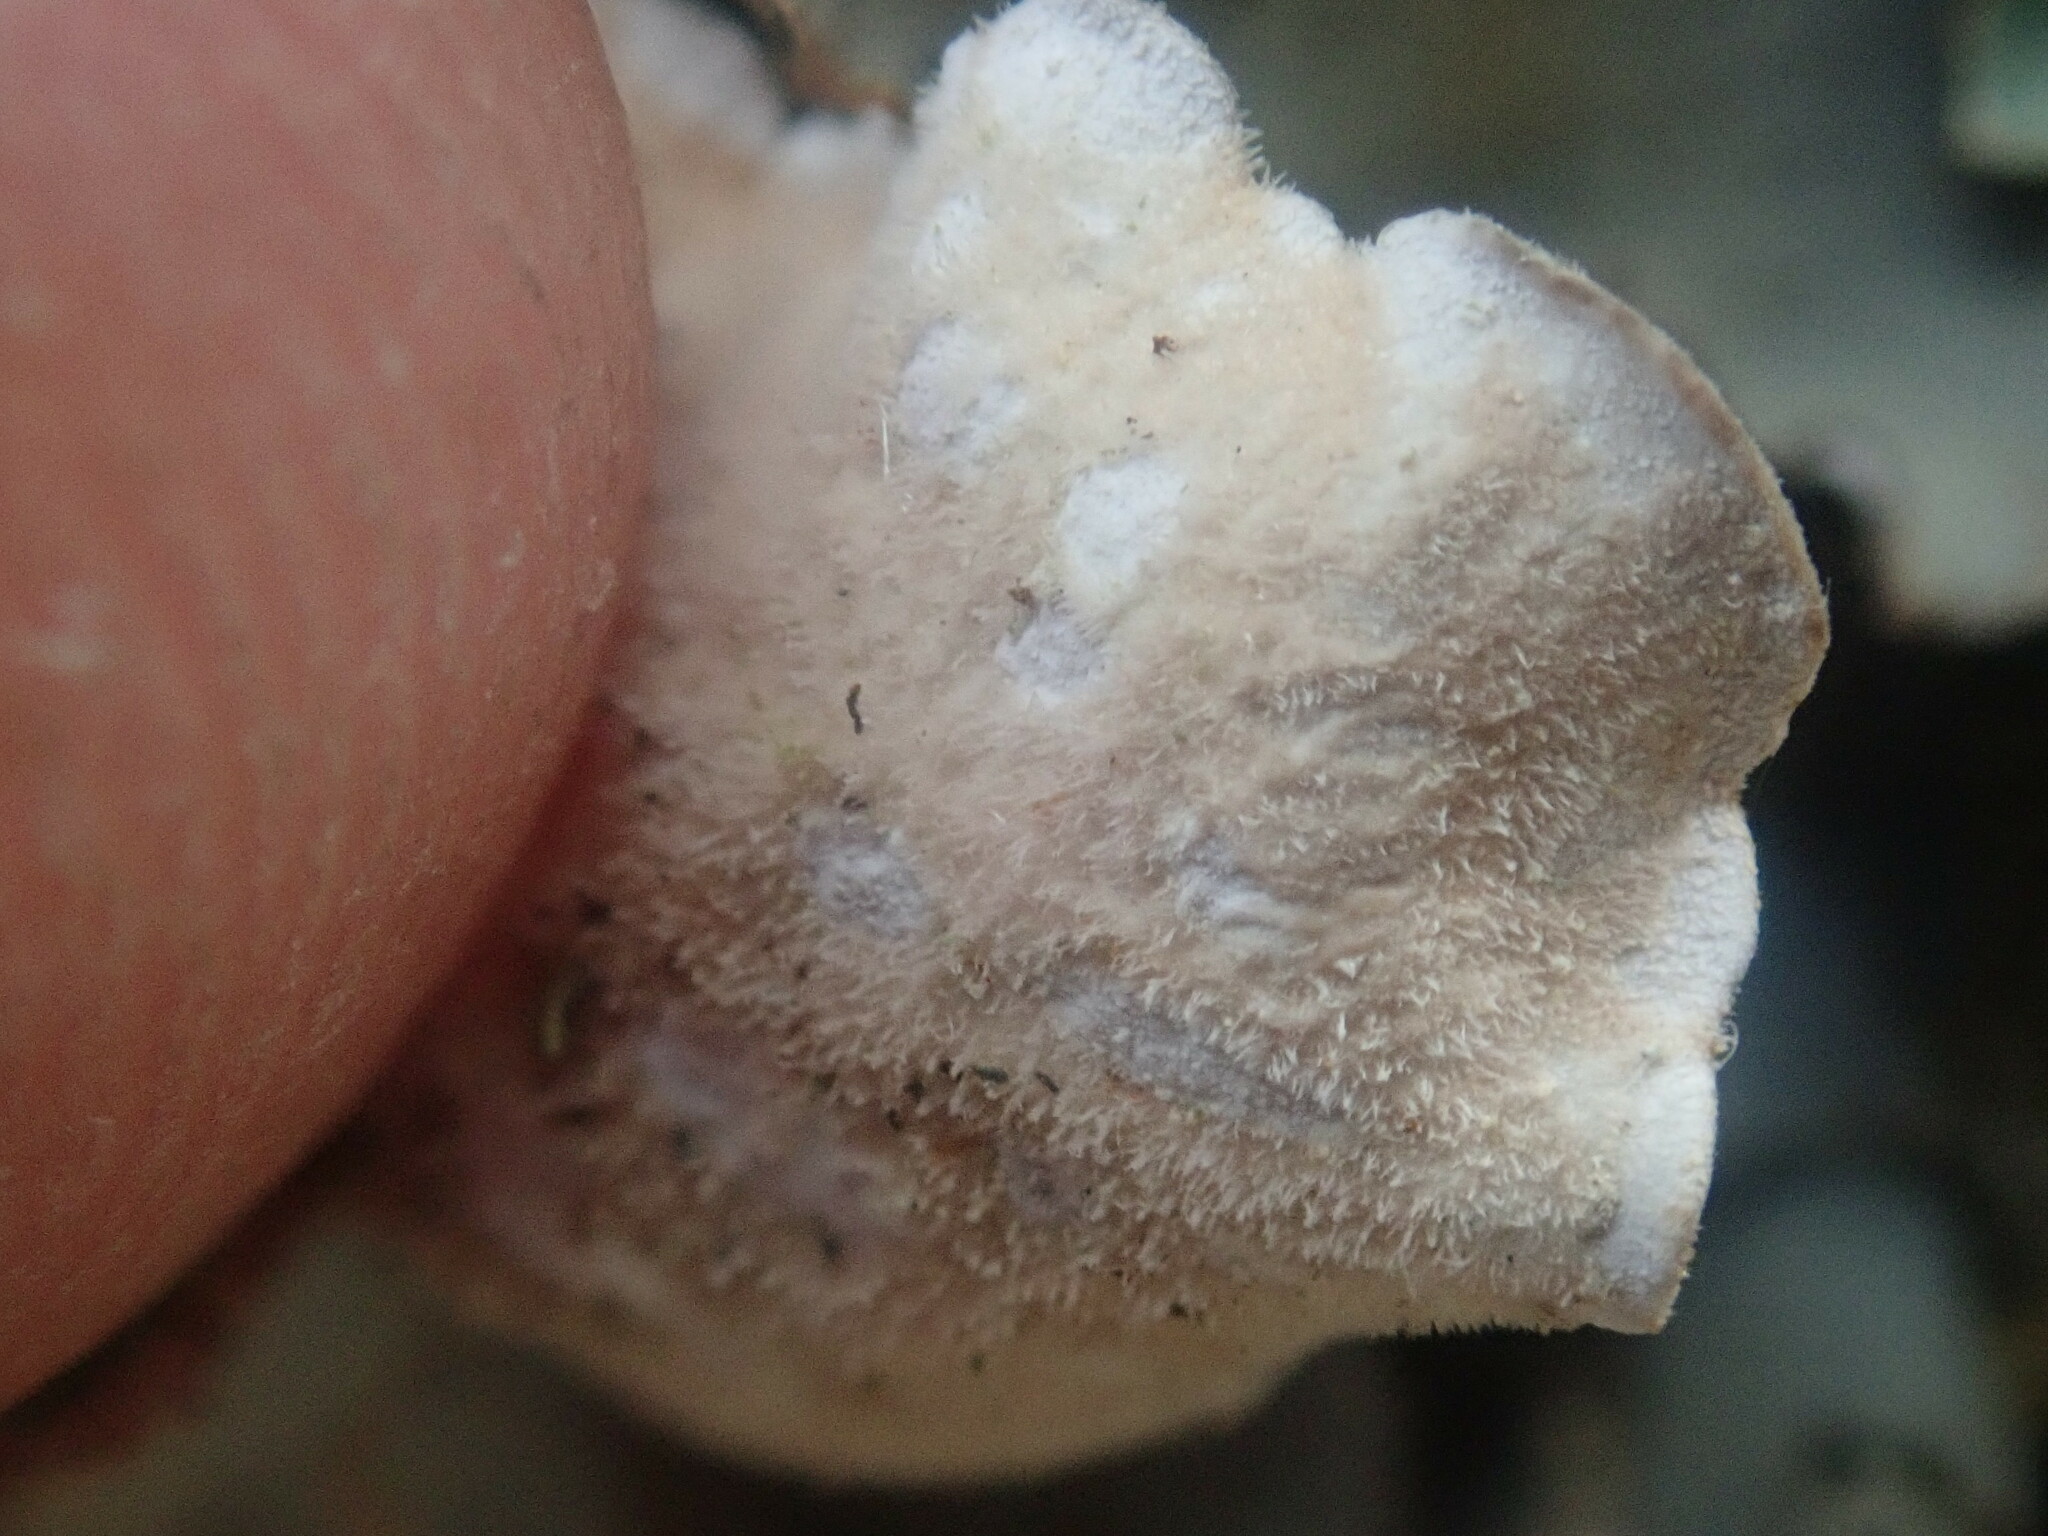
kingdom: Fungi
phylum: Ascomycota
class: Lecanoromycetes
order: Peltigerales
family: Lobariaceae
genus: Lobarina
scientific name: Lobarina scrobiculata
